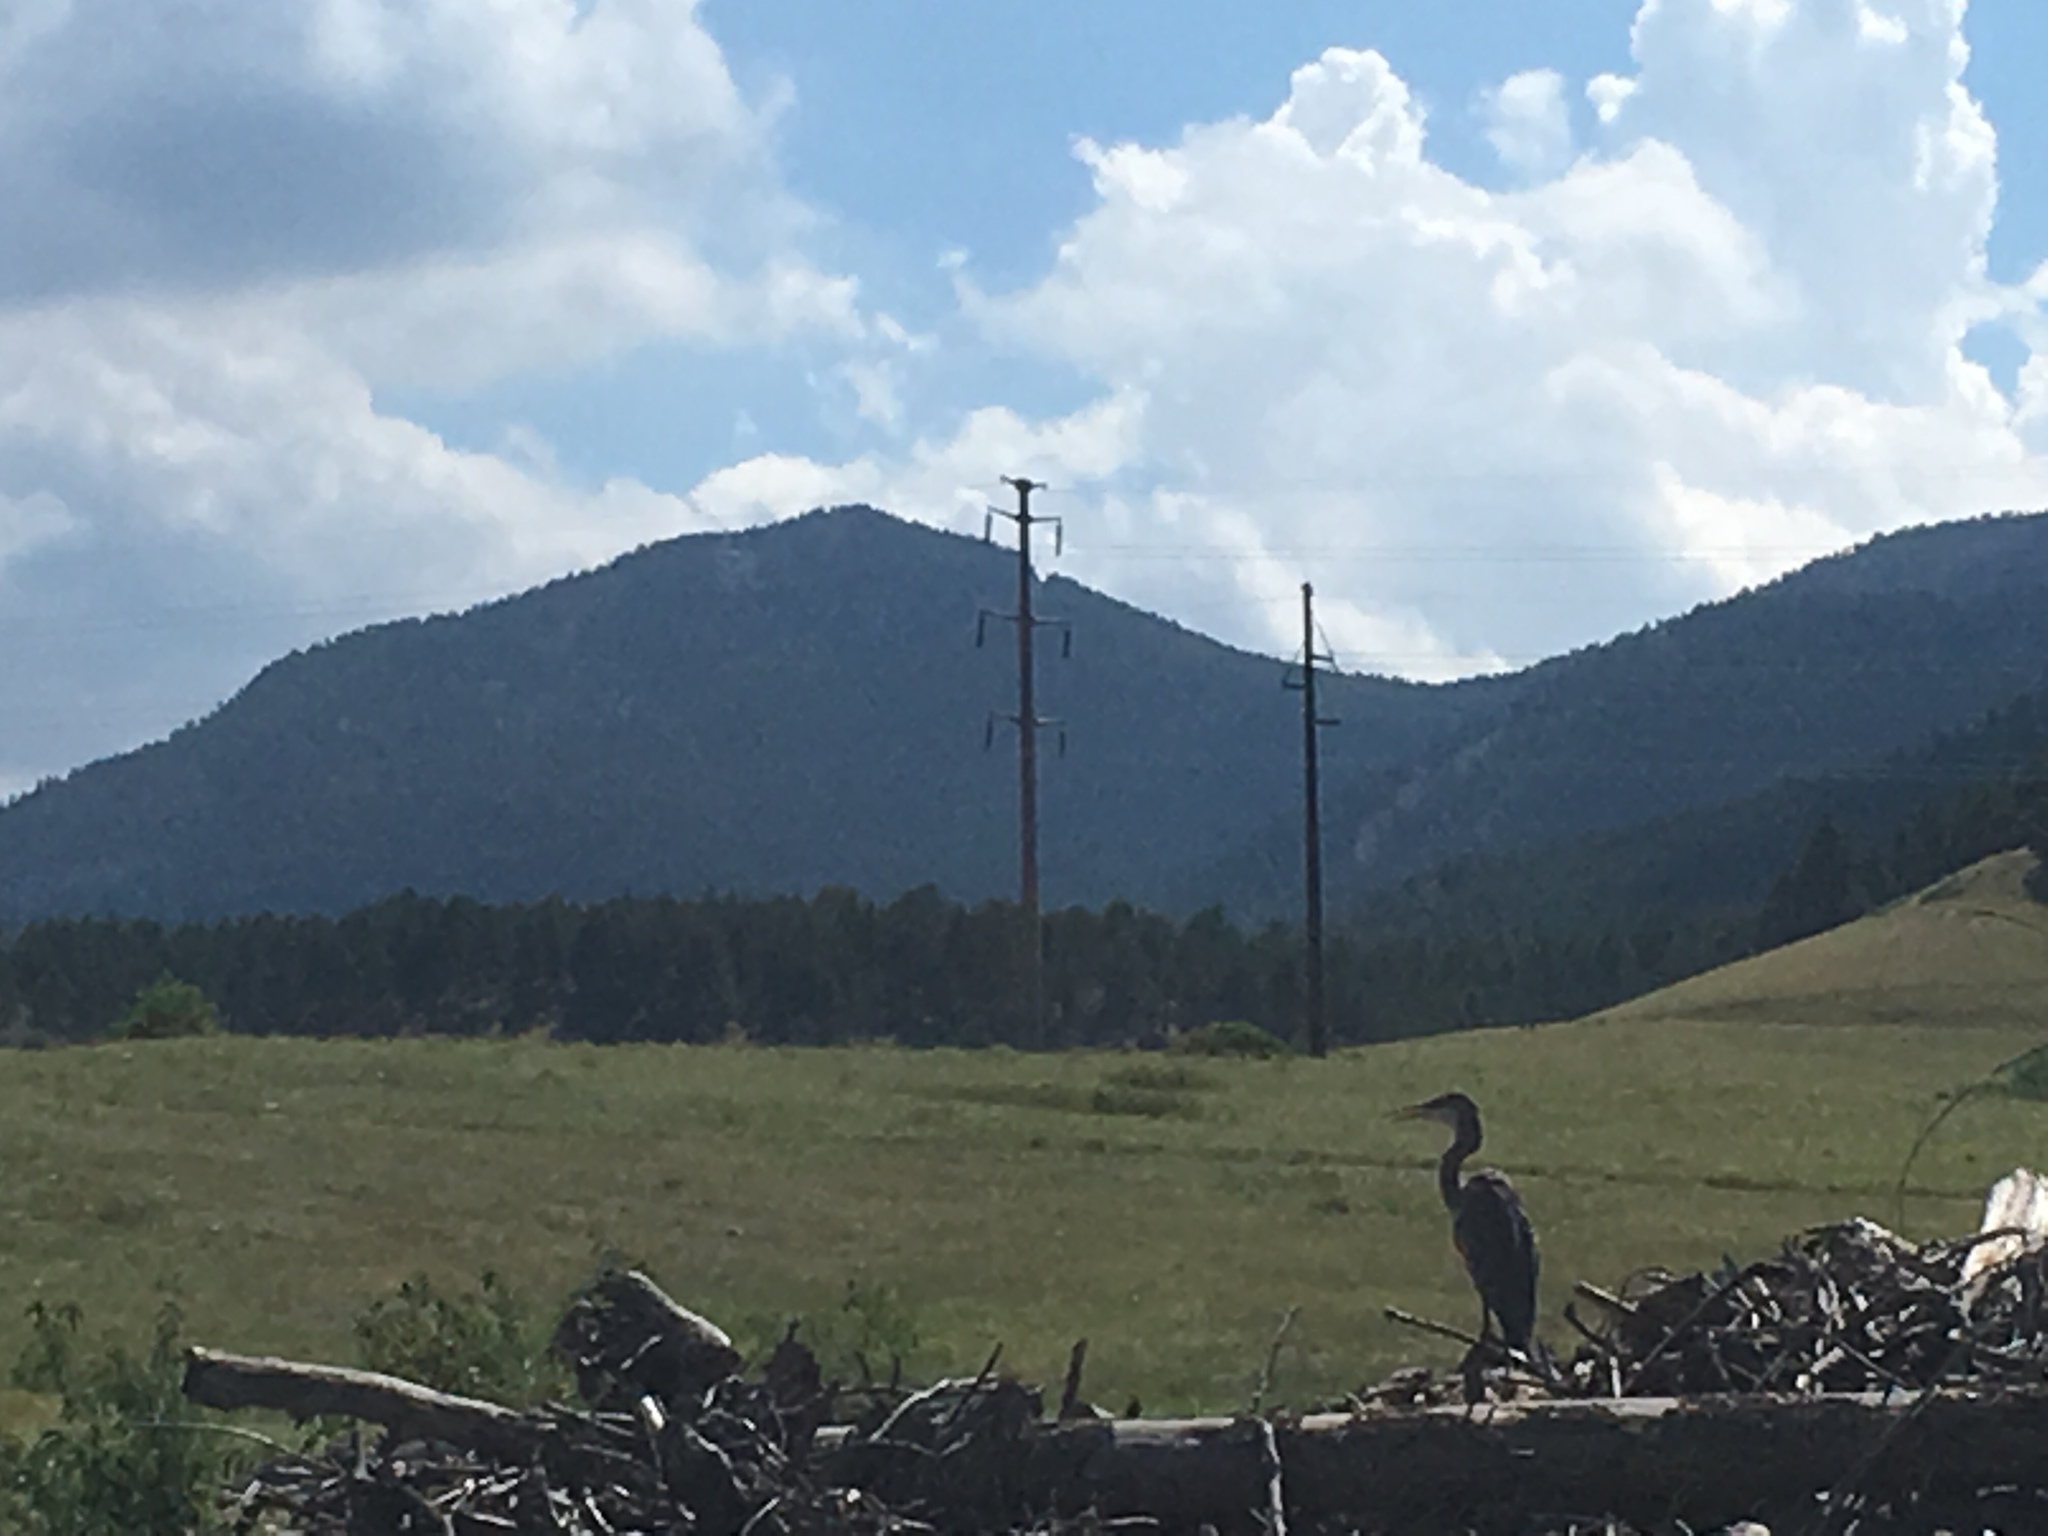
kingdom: Animalia
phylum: Chordata
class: Aves
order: Pelecaniformes
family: Ardeidae
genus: Ardea
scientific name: Ardea herodias
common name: Great blue heron
